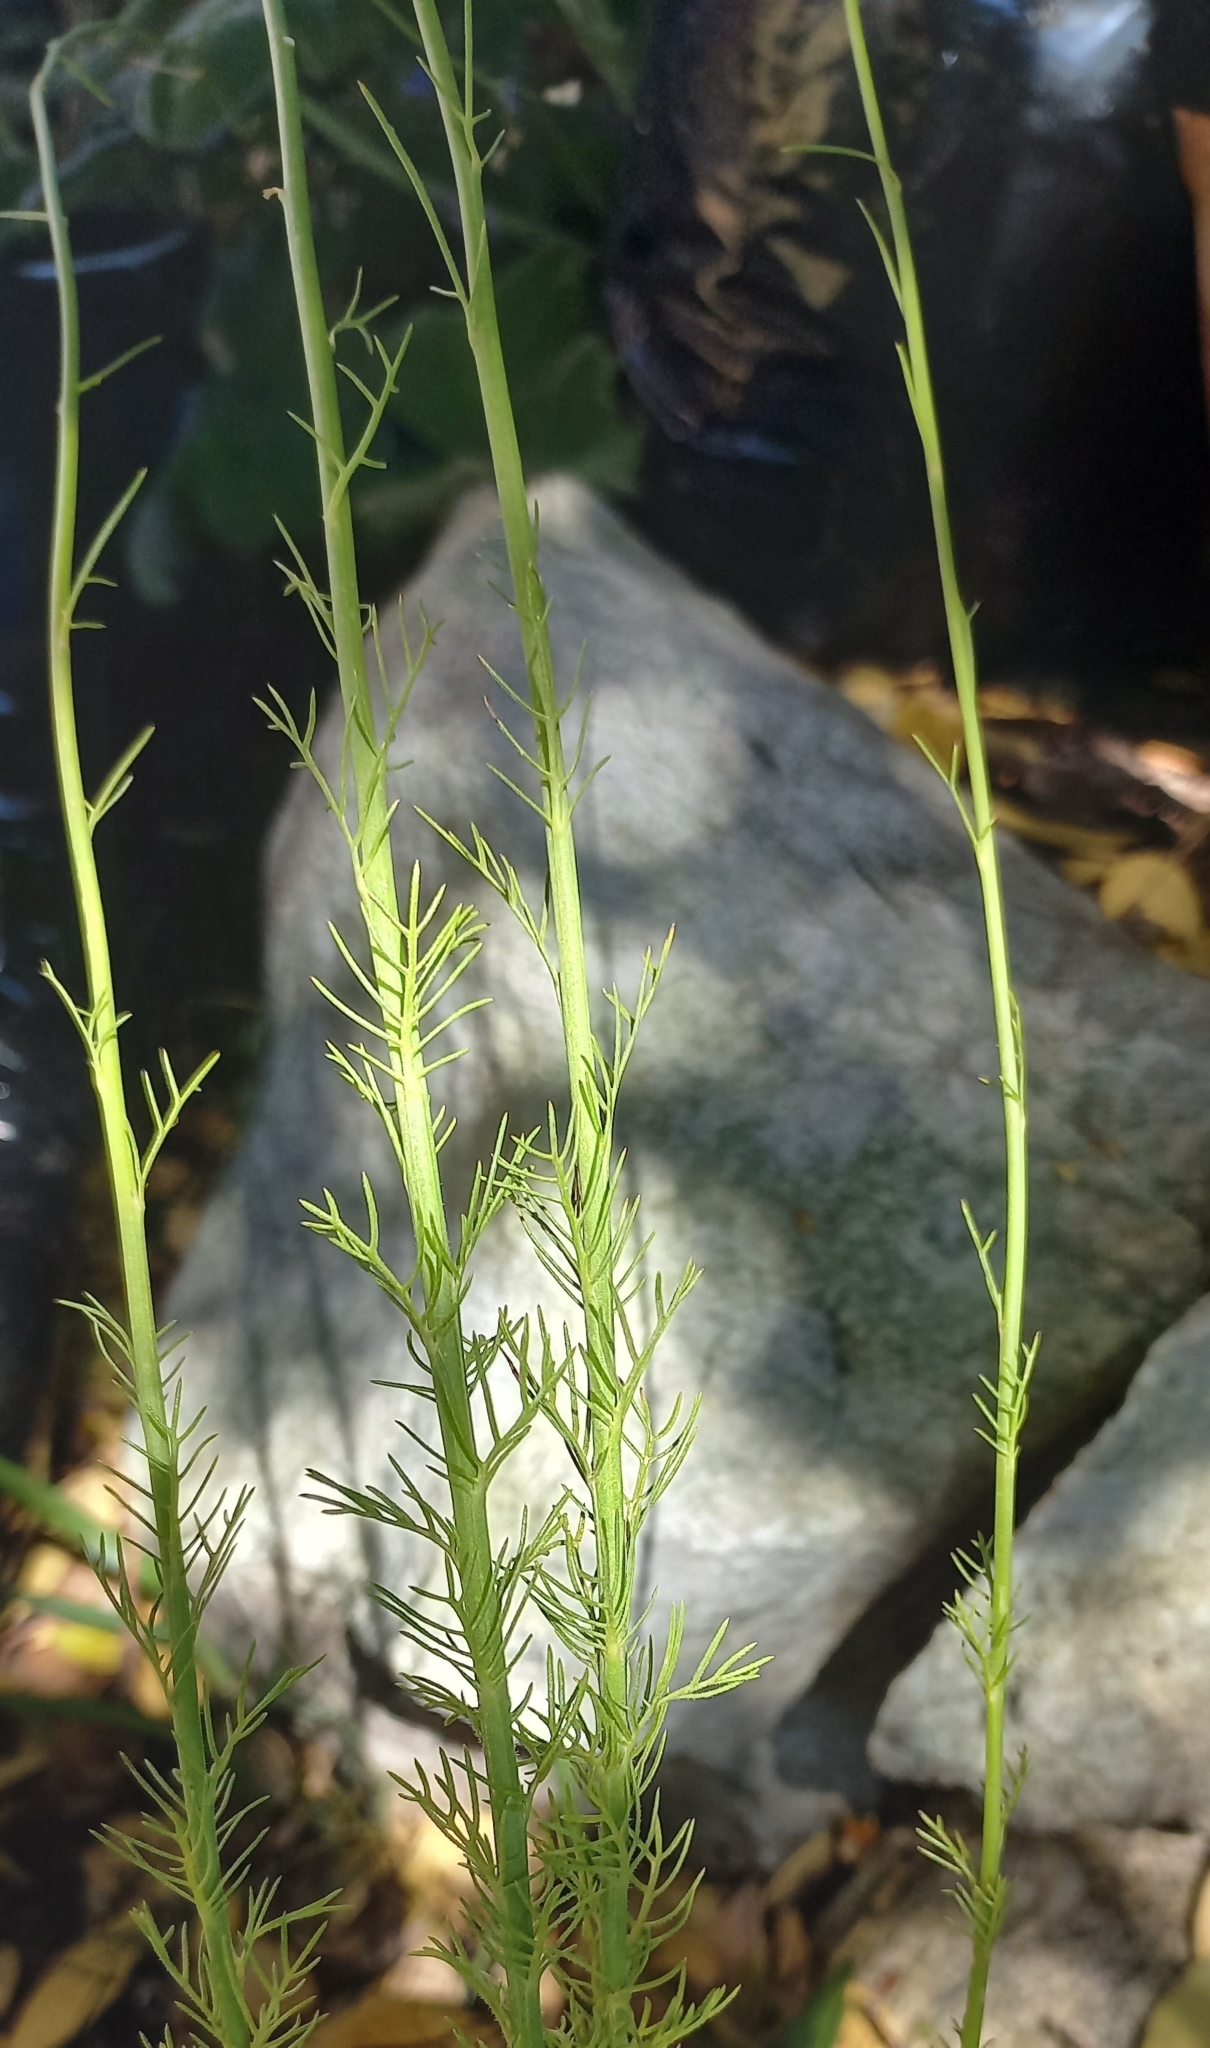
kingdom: Plantae
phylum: Tracheophyta
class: Magnoliopsida
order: Asterales
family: Campanulaceae
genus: Lobelia
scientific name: Lobelia setacea
